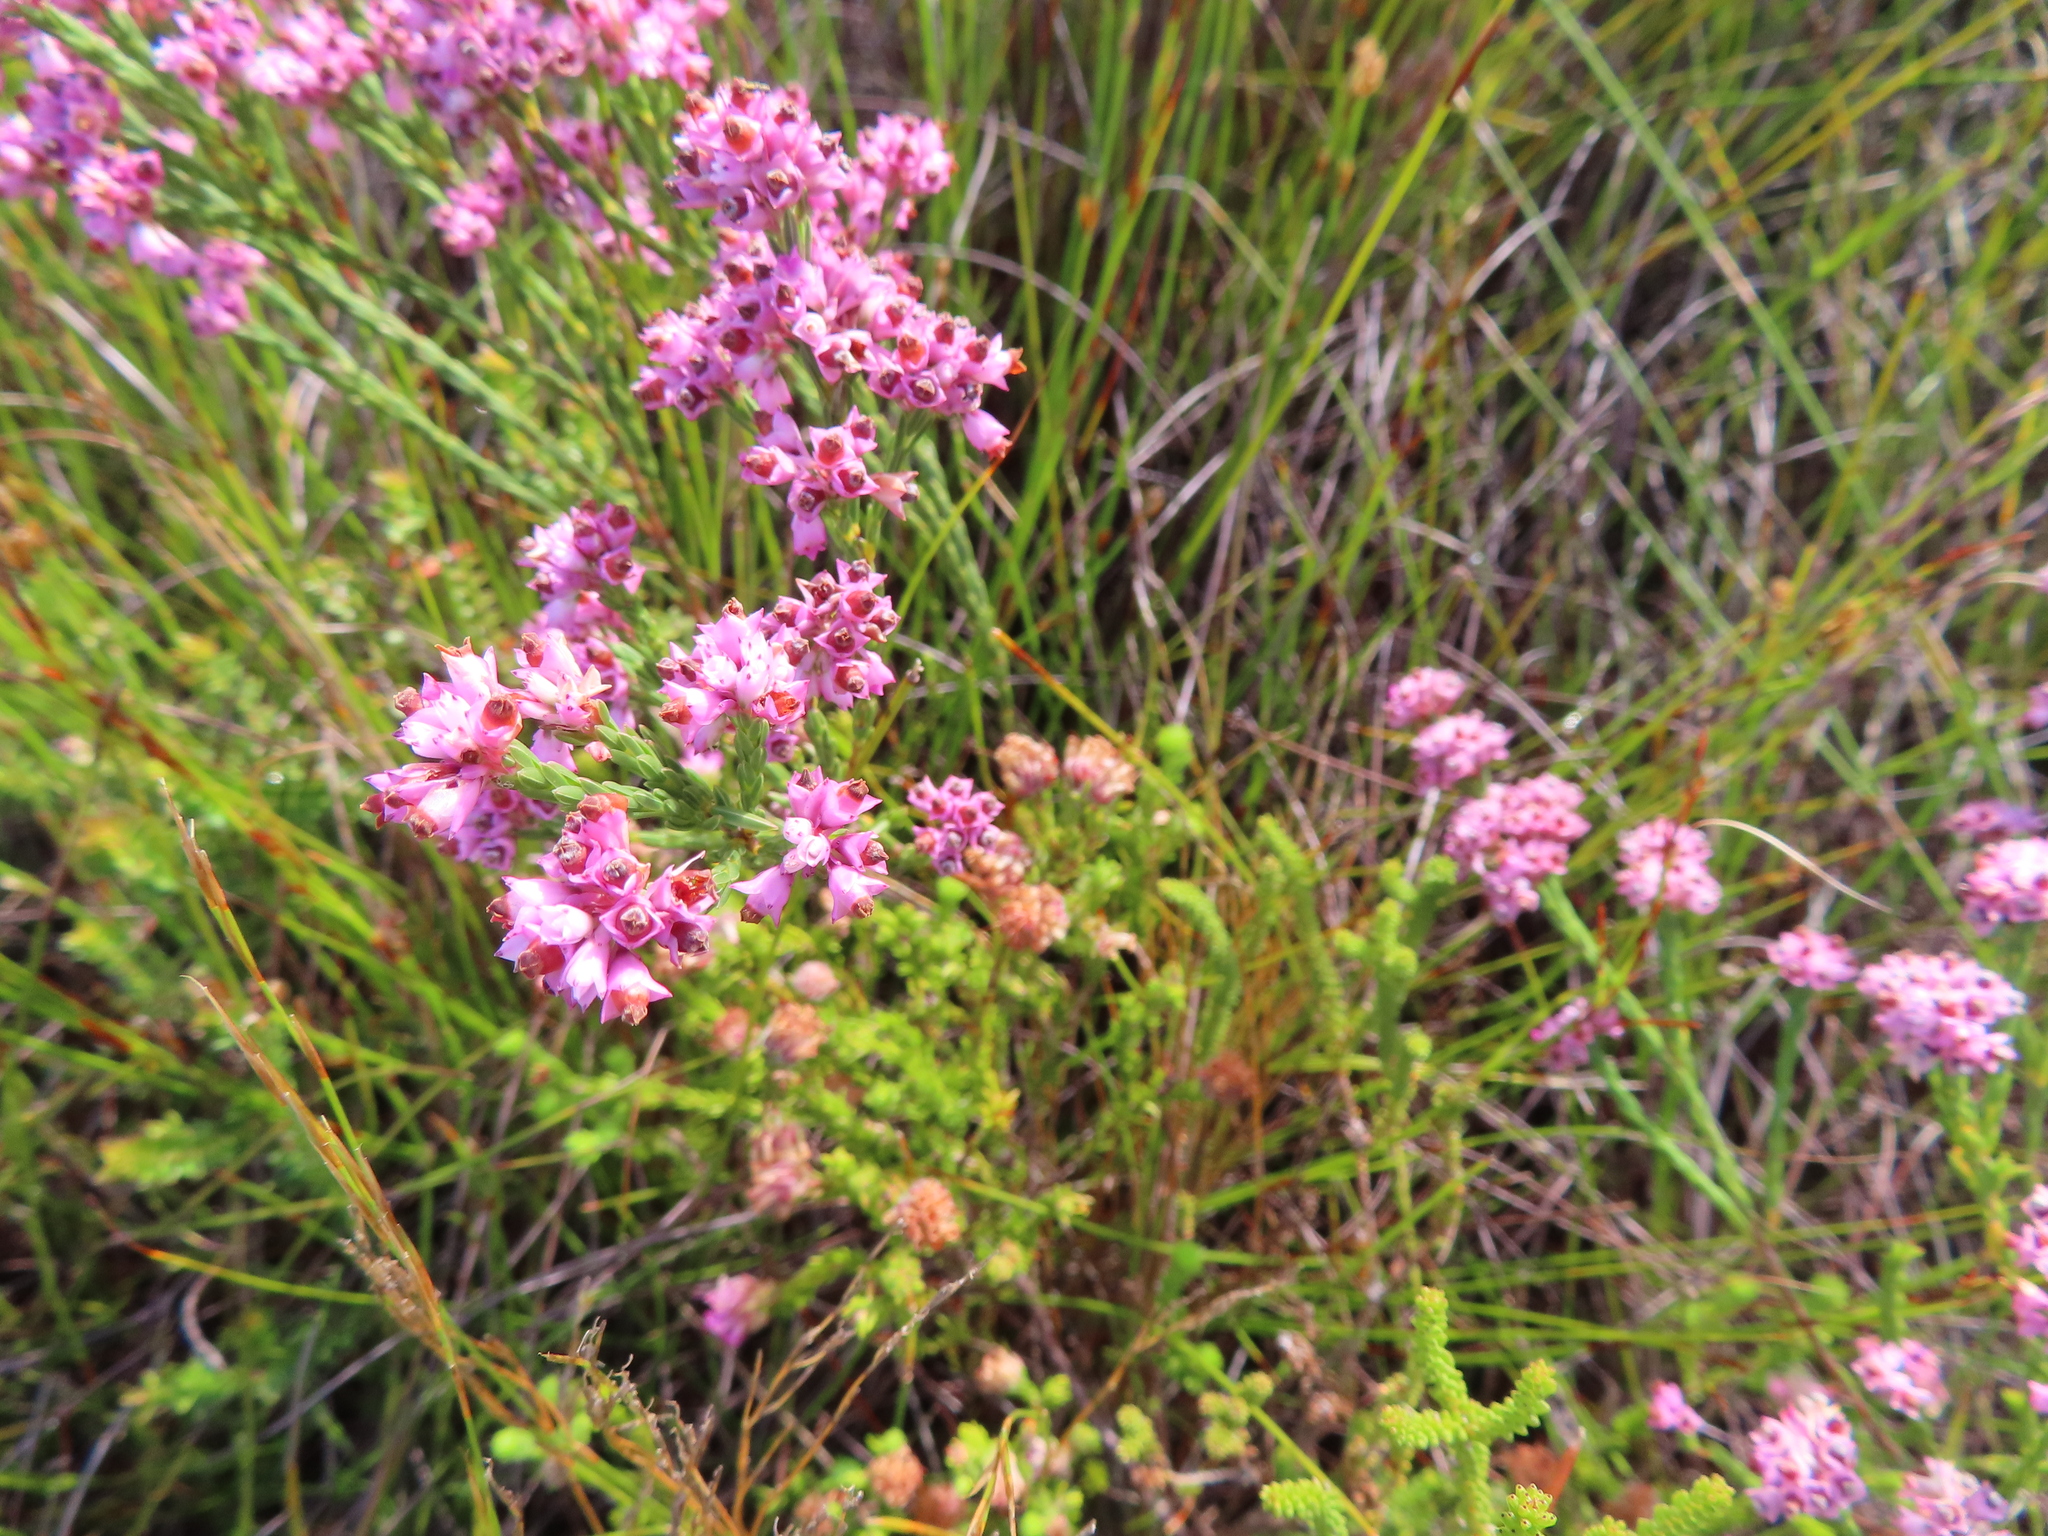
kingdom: Plantae
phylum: Tracheophyta
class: Magnoliopsida
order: Ericales
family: Ericaceae
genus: Erica
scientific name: Erica corifolia
